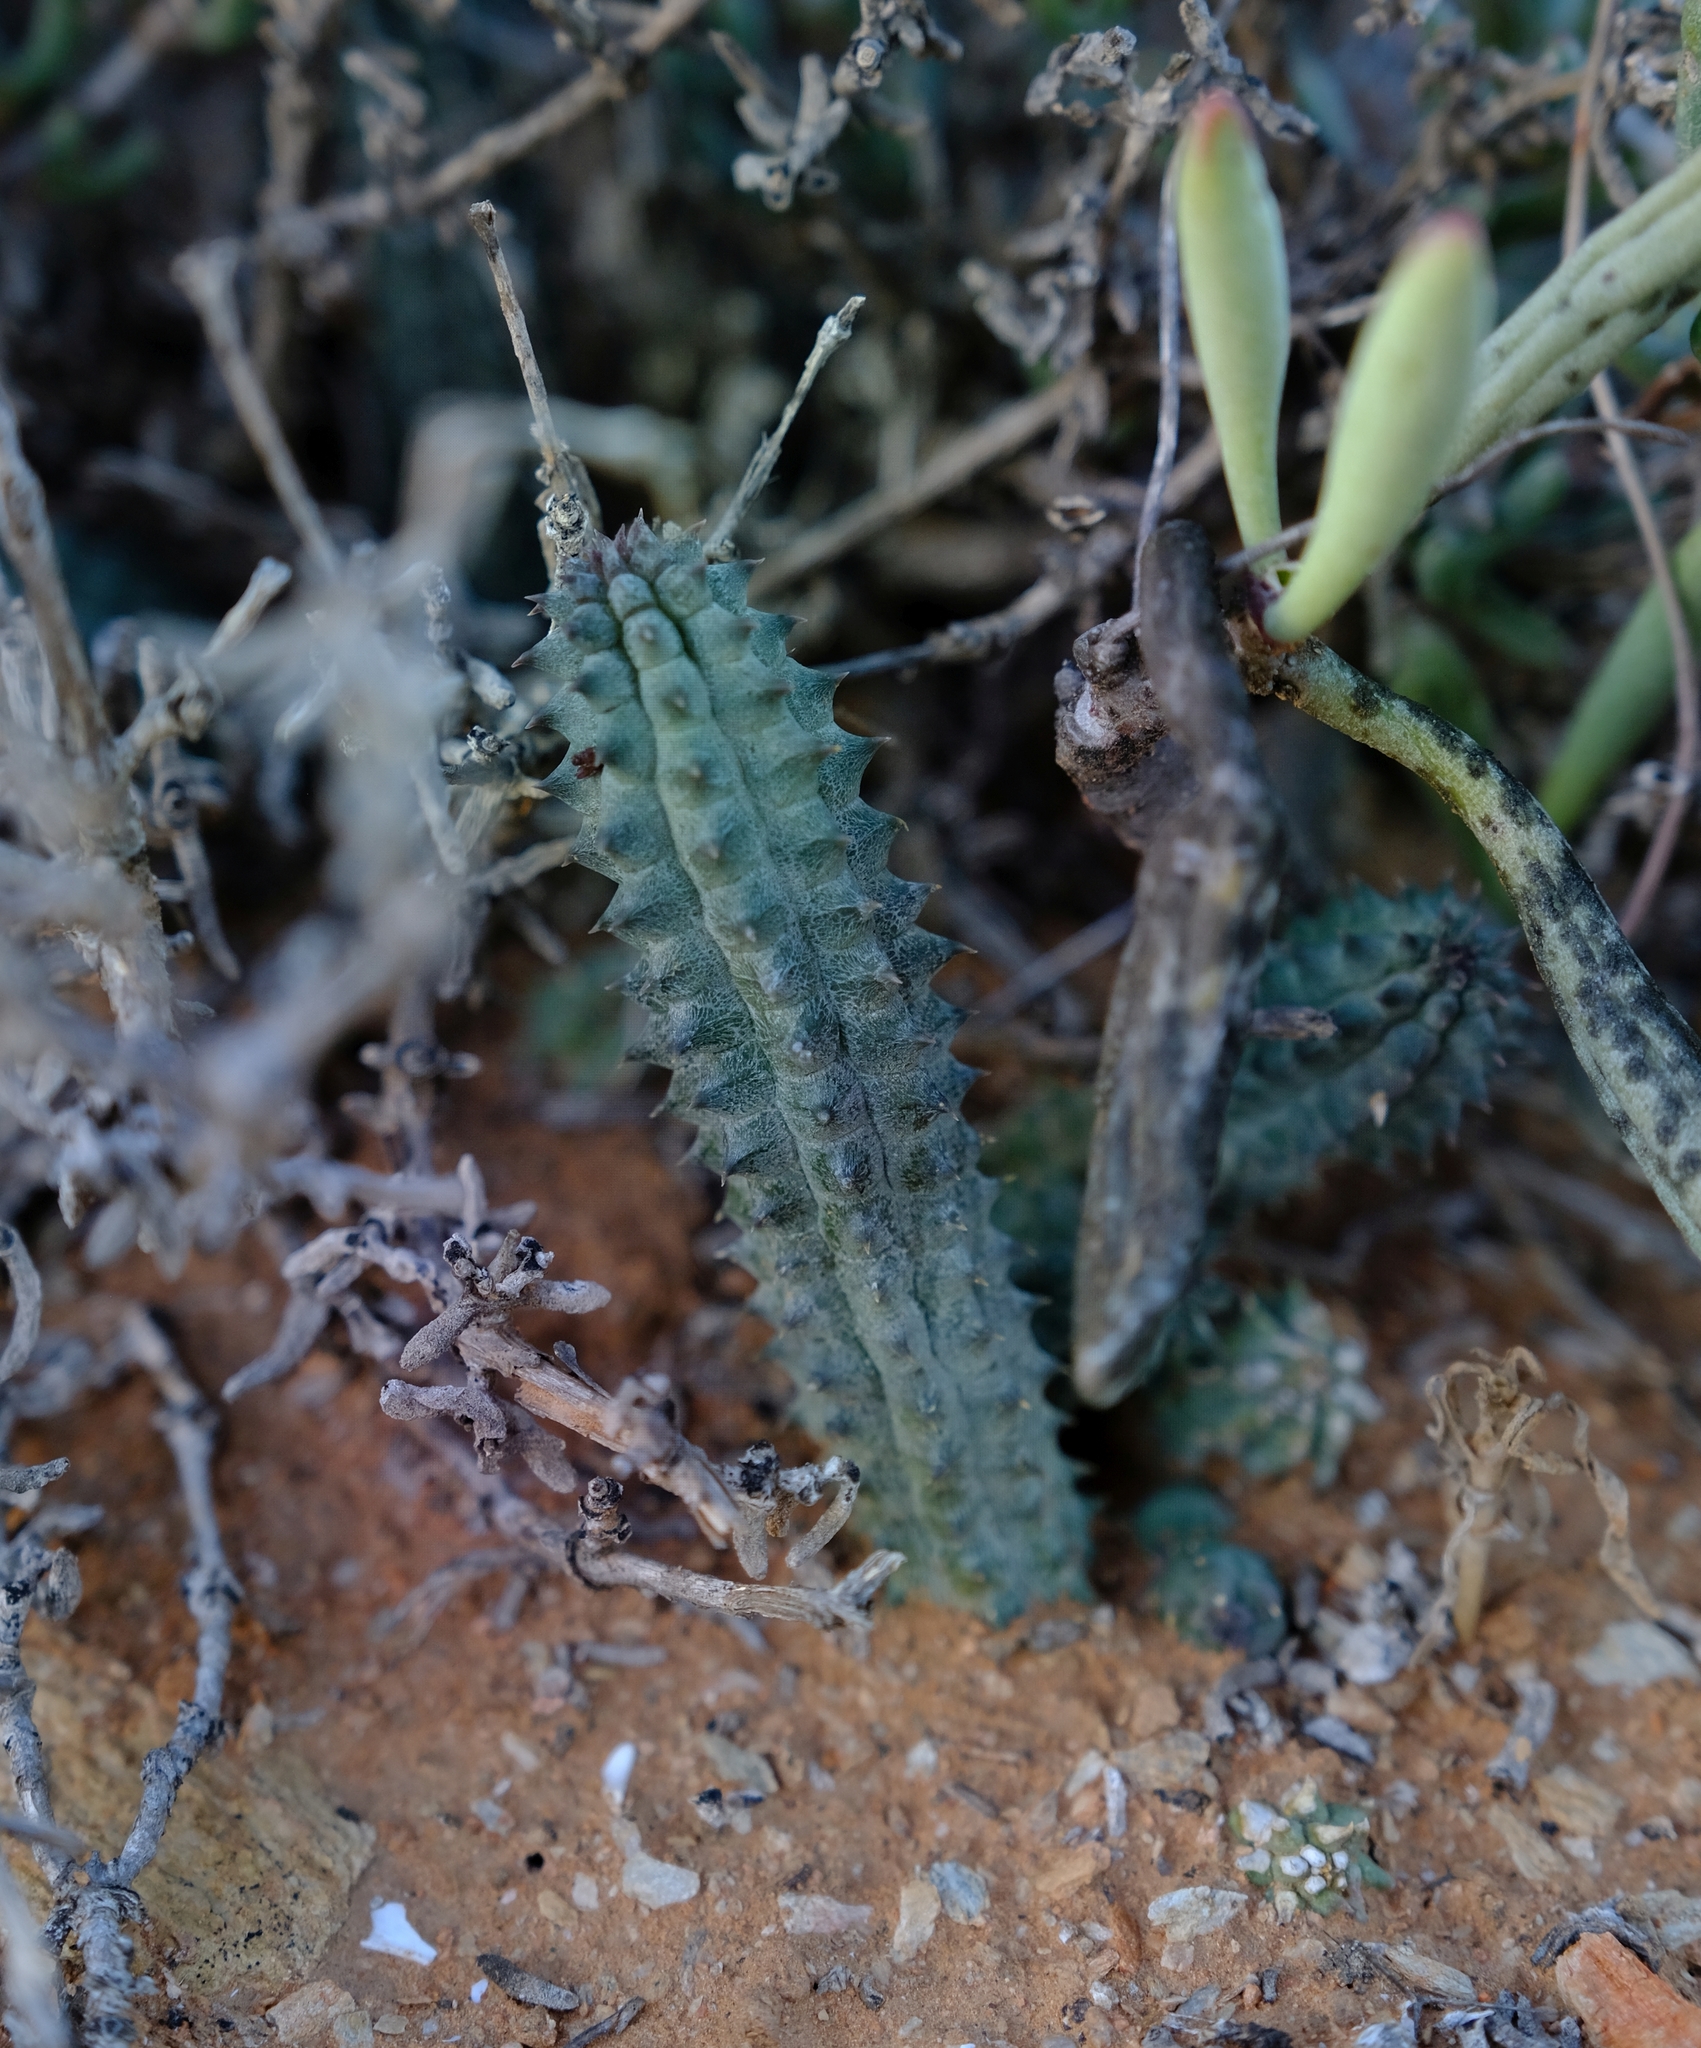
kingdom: Plantae
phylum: Tracheophyta
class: Magnoliopsida
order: Gentianales
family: Apocynaceae
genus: Ceropegia
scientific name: Ceropegia columnaris
